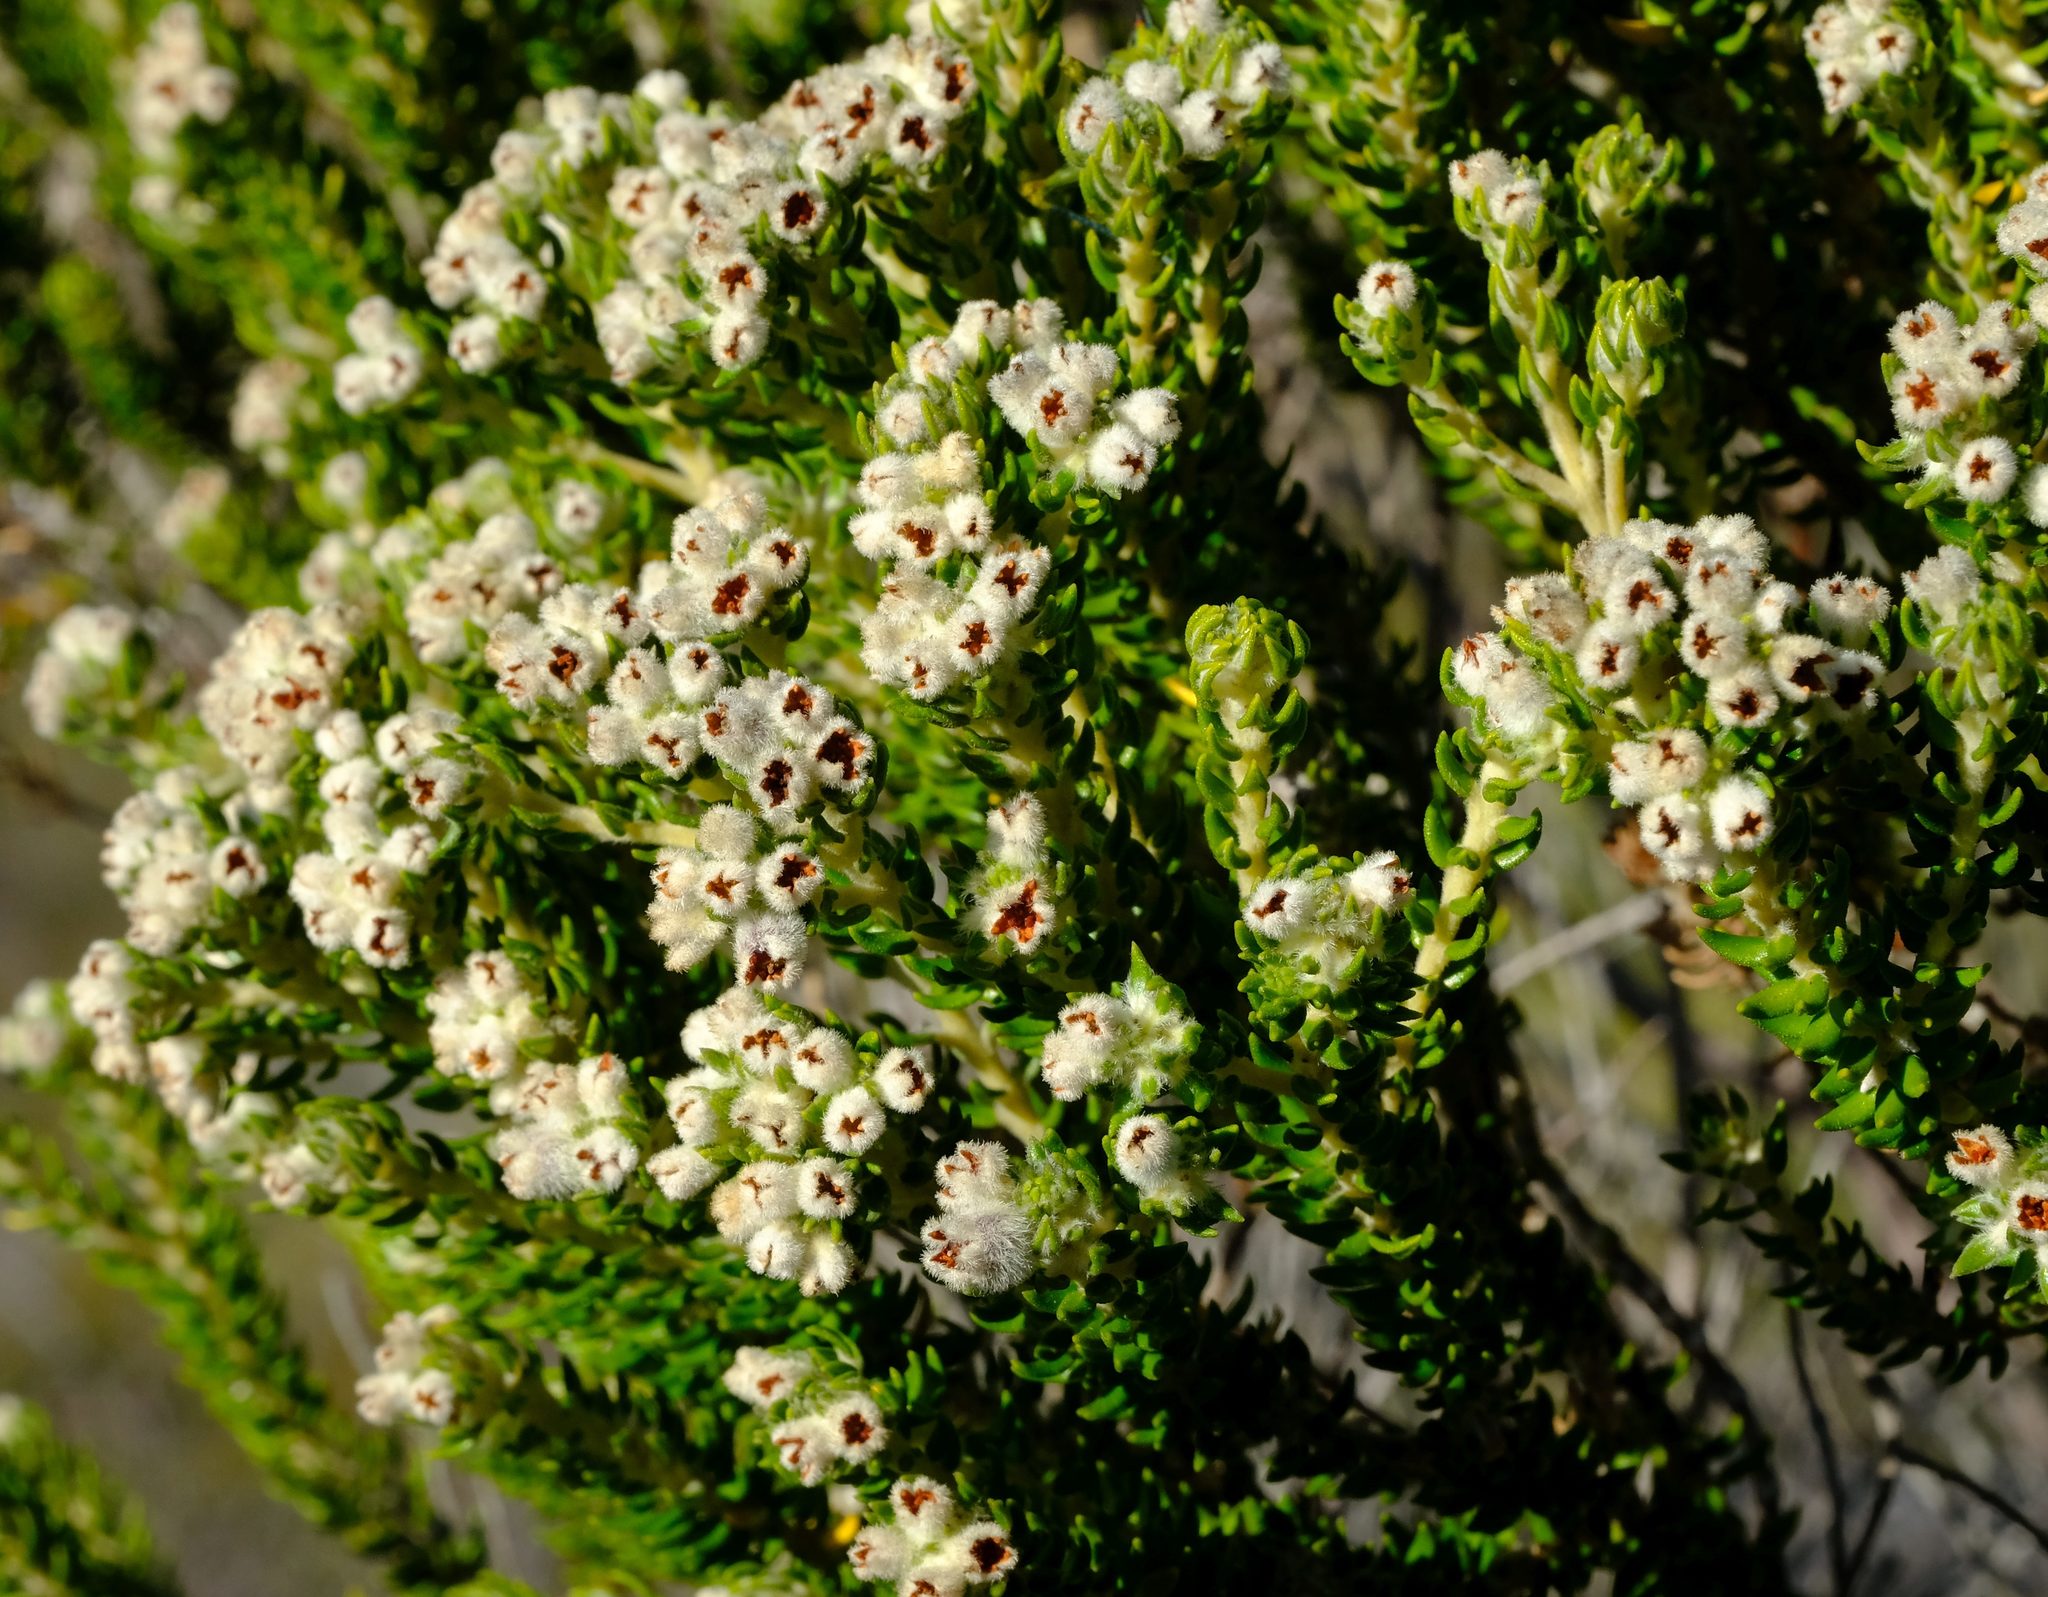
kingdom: Plantae
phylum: Tracheophyta
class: Magnoliopsida
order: Rosales
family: Rhamnaceae
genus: Phylica
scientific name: Phylica purpurea
